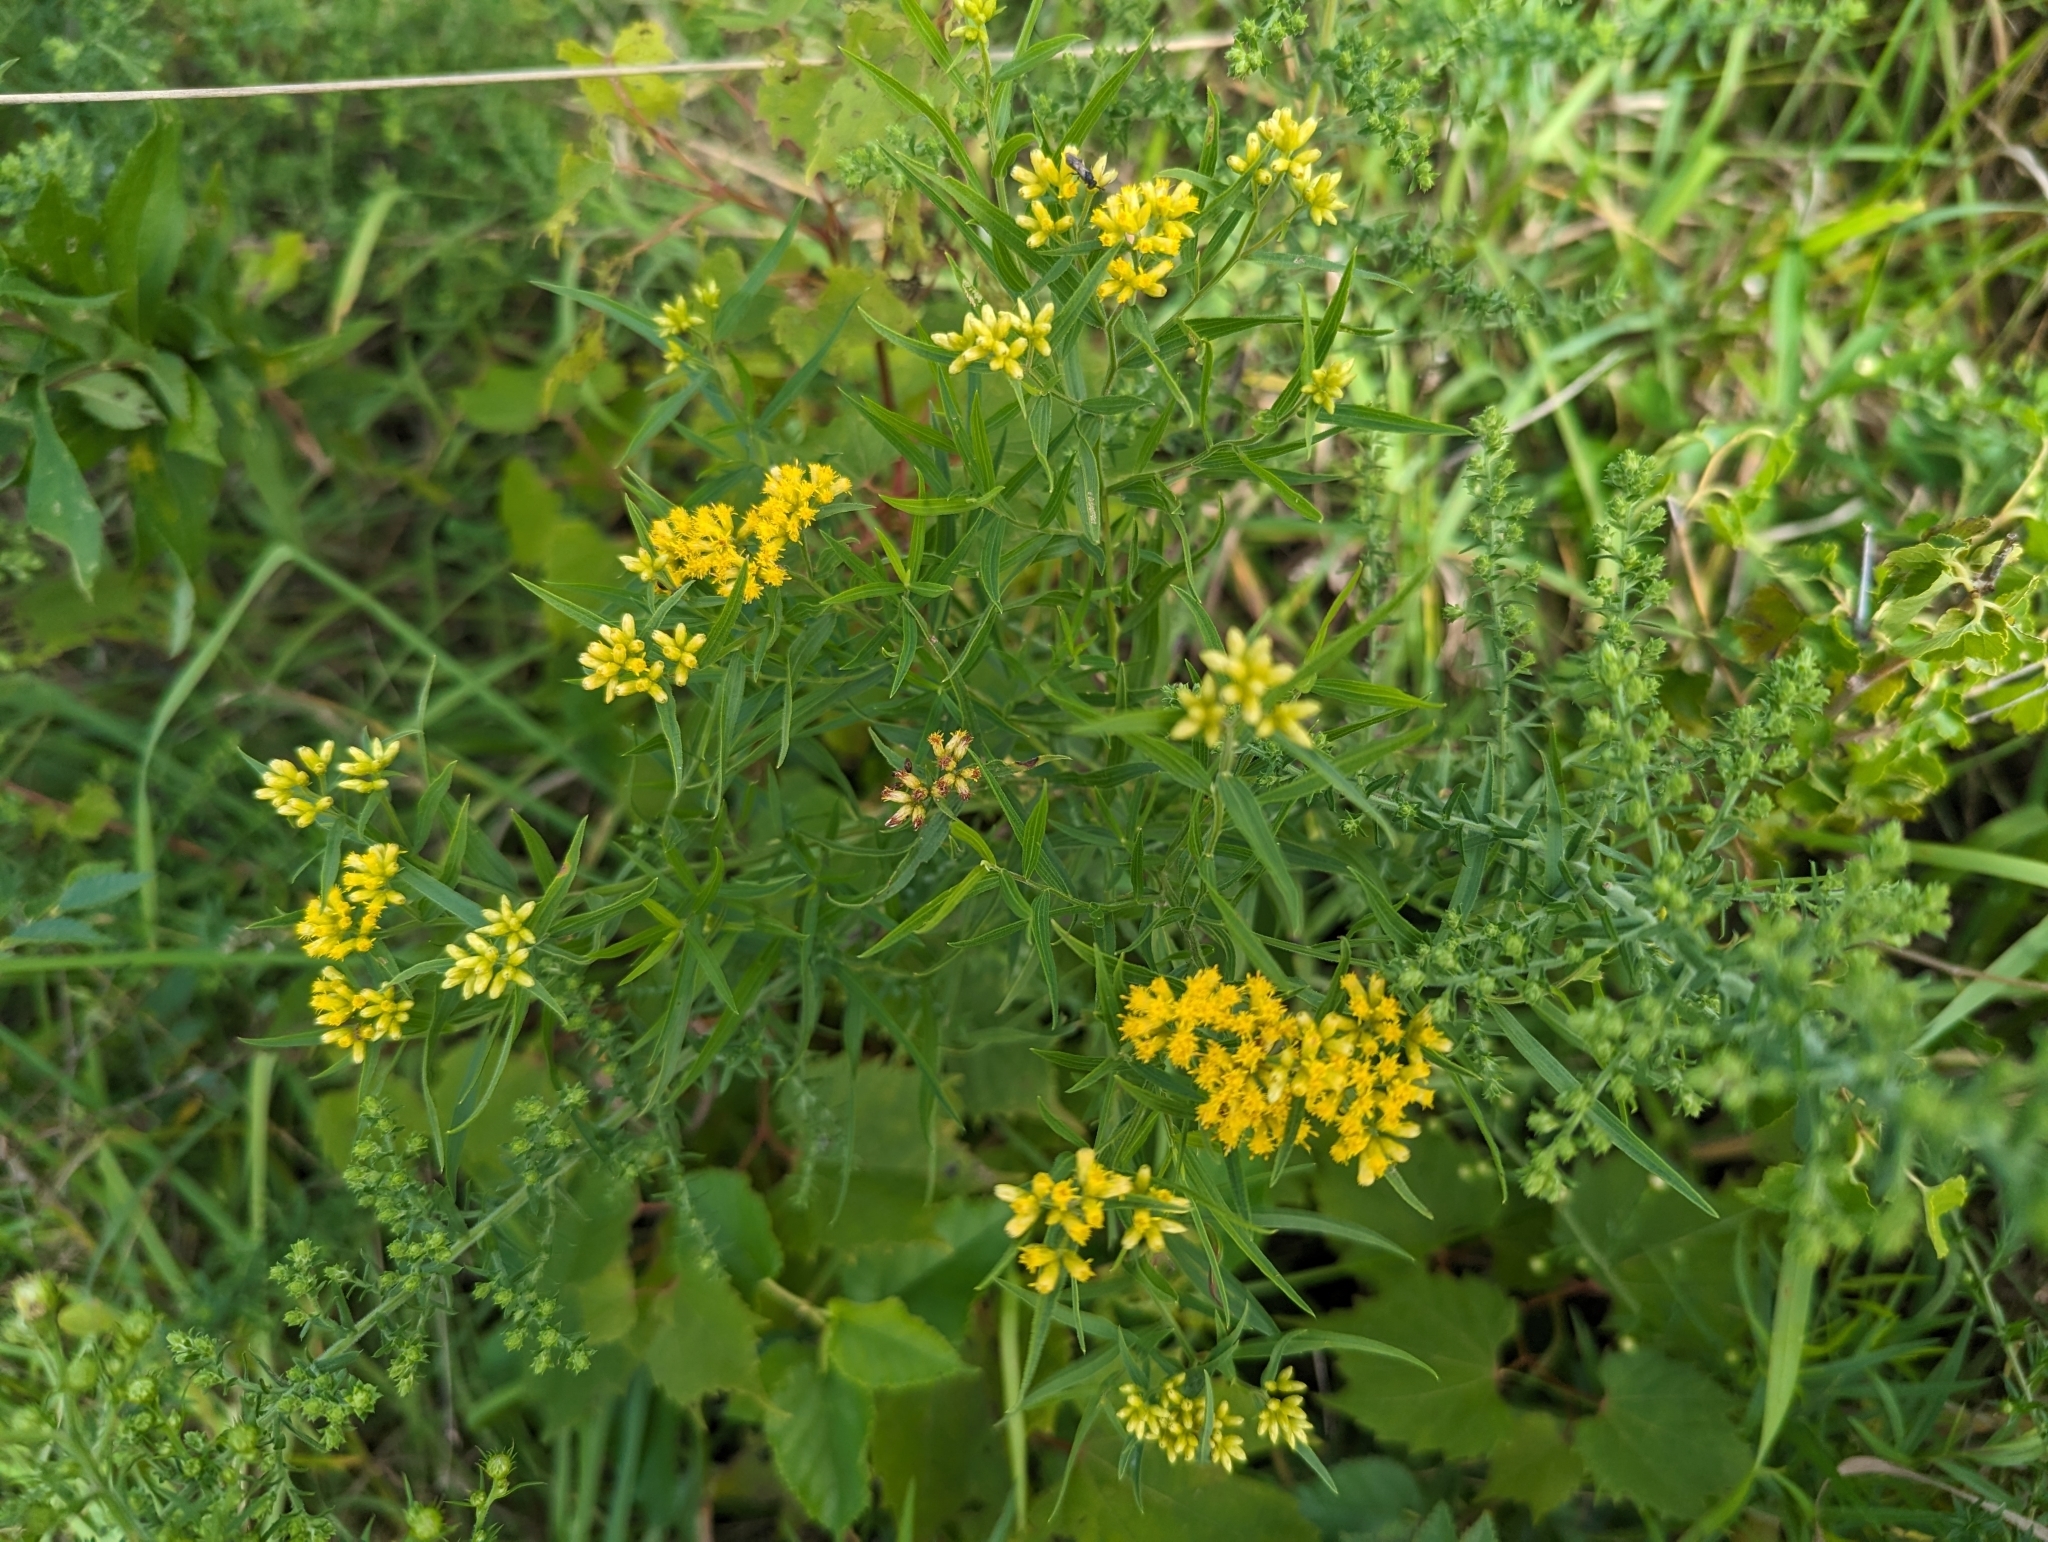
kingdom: Plantae
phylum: Tracheophyta
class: Magnoliopsida
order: Asterales
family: Asteraceae
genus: Euthamia
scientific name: Euthamia graminifolia
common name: Common goldentop
